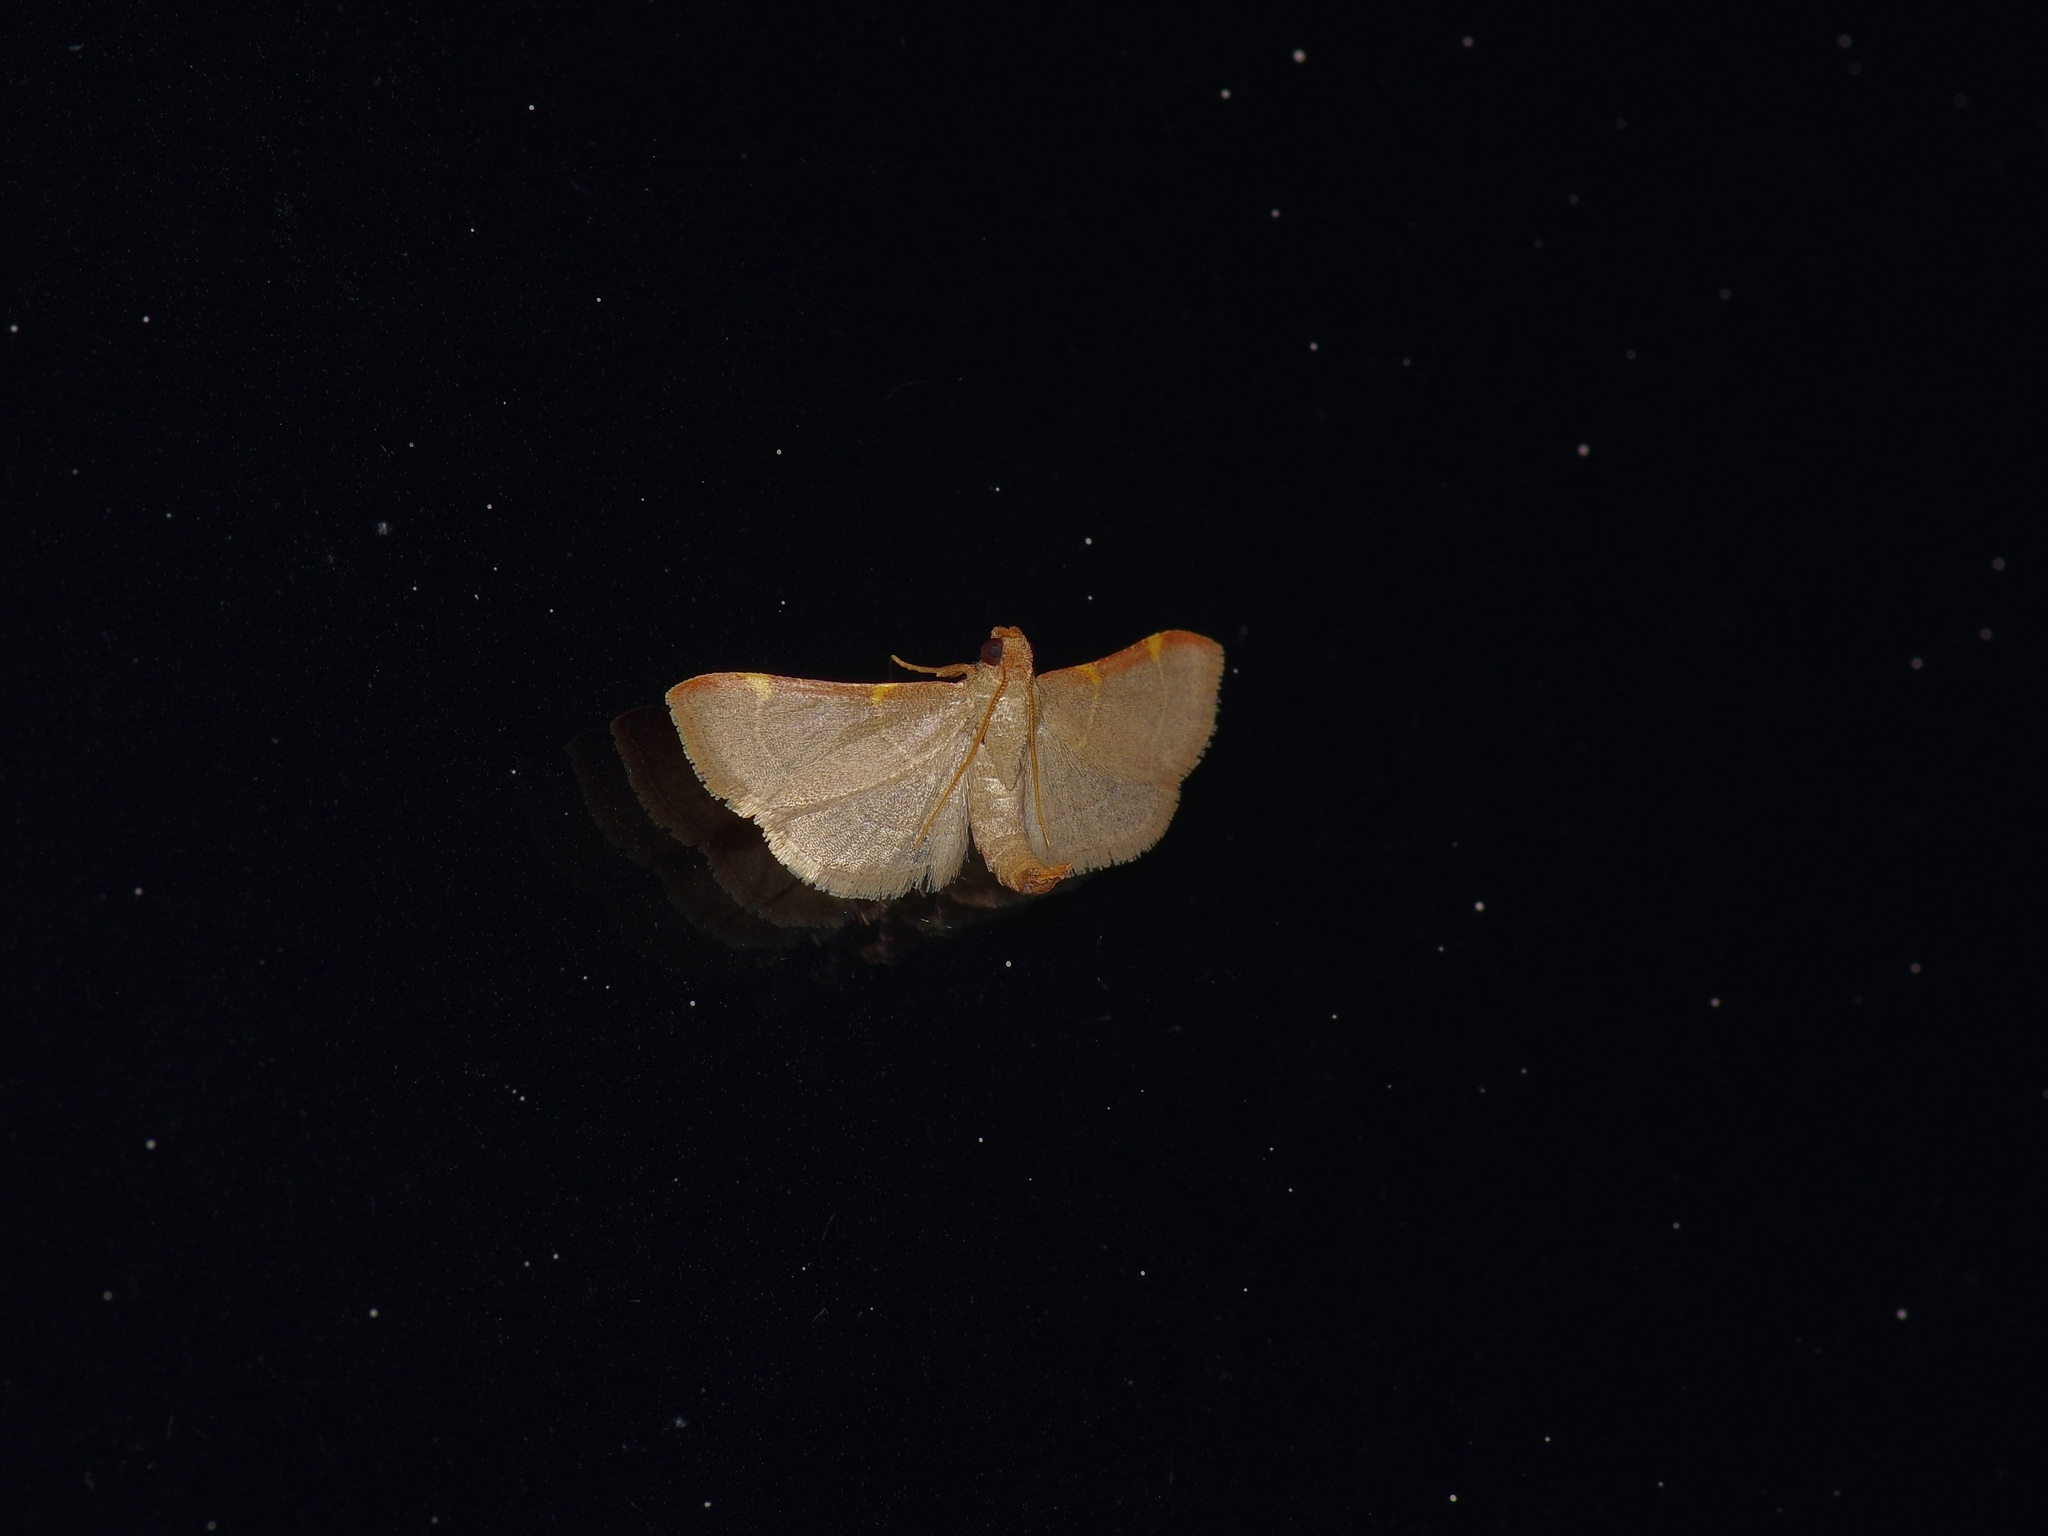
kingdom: Animalia
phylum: Arthropoda
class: Insecta
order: Lepidoptera
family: Pyralidae
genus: Hypsopygia
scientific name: Hypsopygia binodulalis
